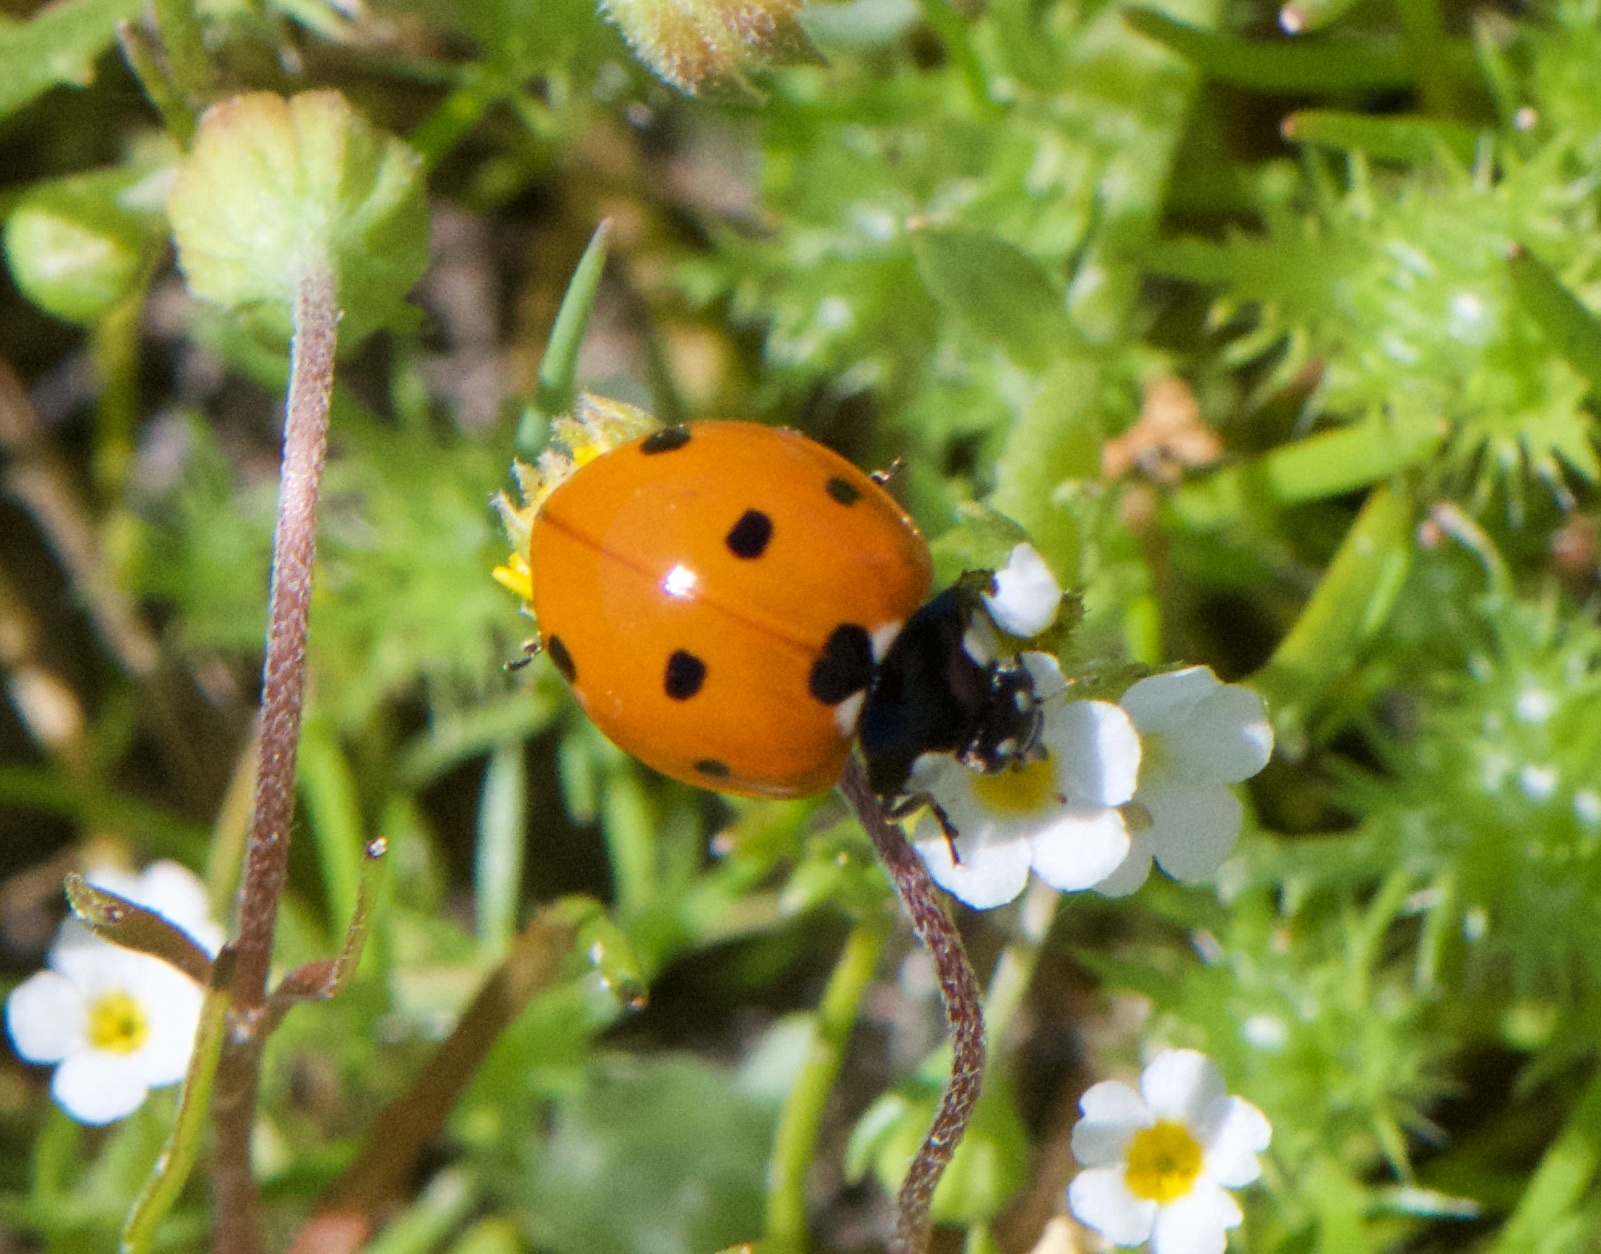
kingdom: Animalia
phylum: Arthropoda
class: Insecta
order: Coleoptera
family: Coccinellidae
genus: Coccinella
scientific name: Coccinella septempunctata
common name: Sevenspotted lady beetle
